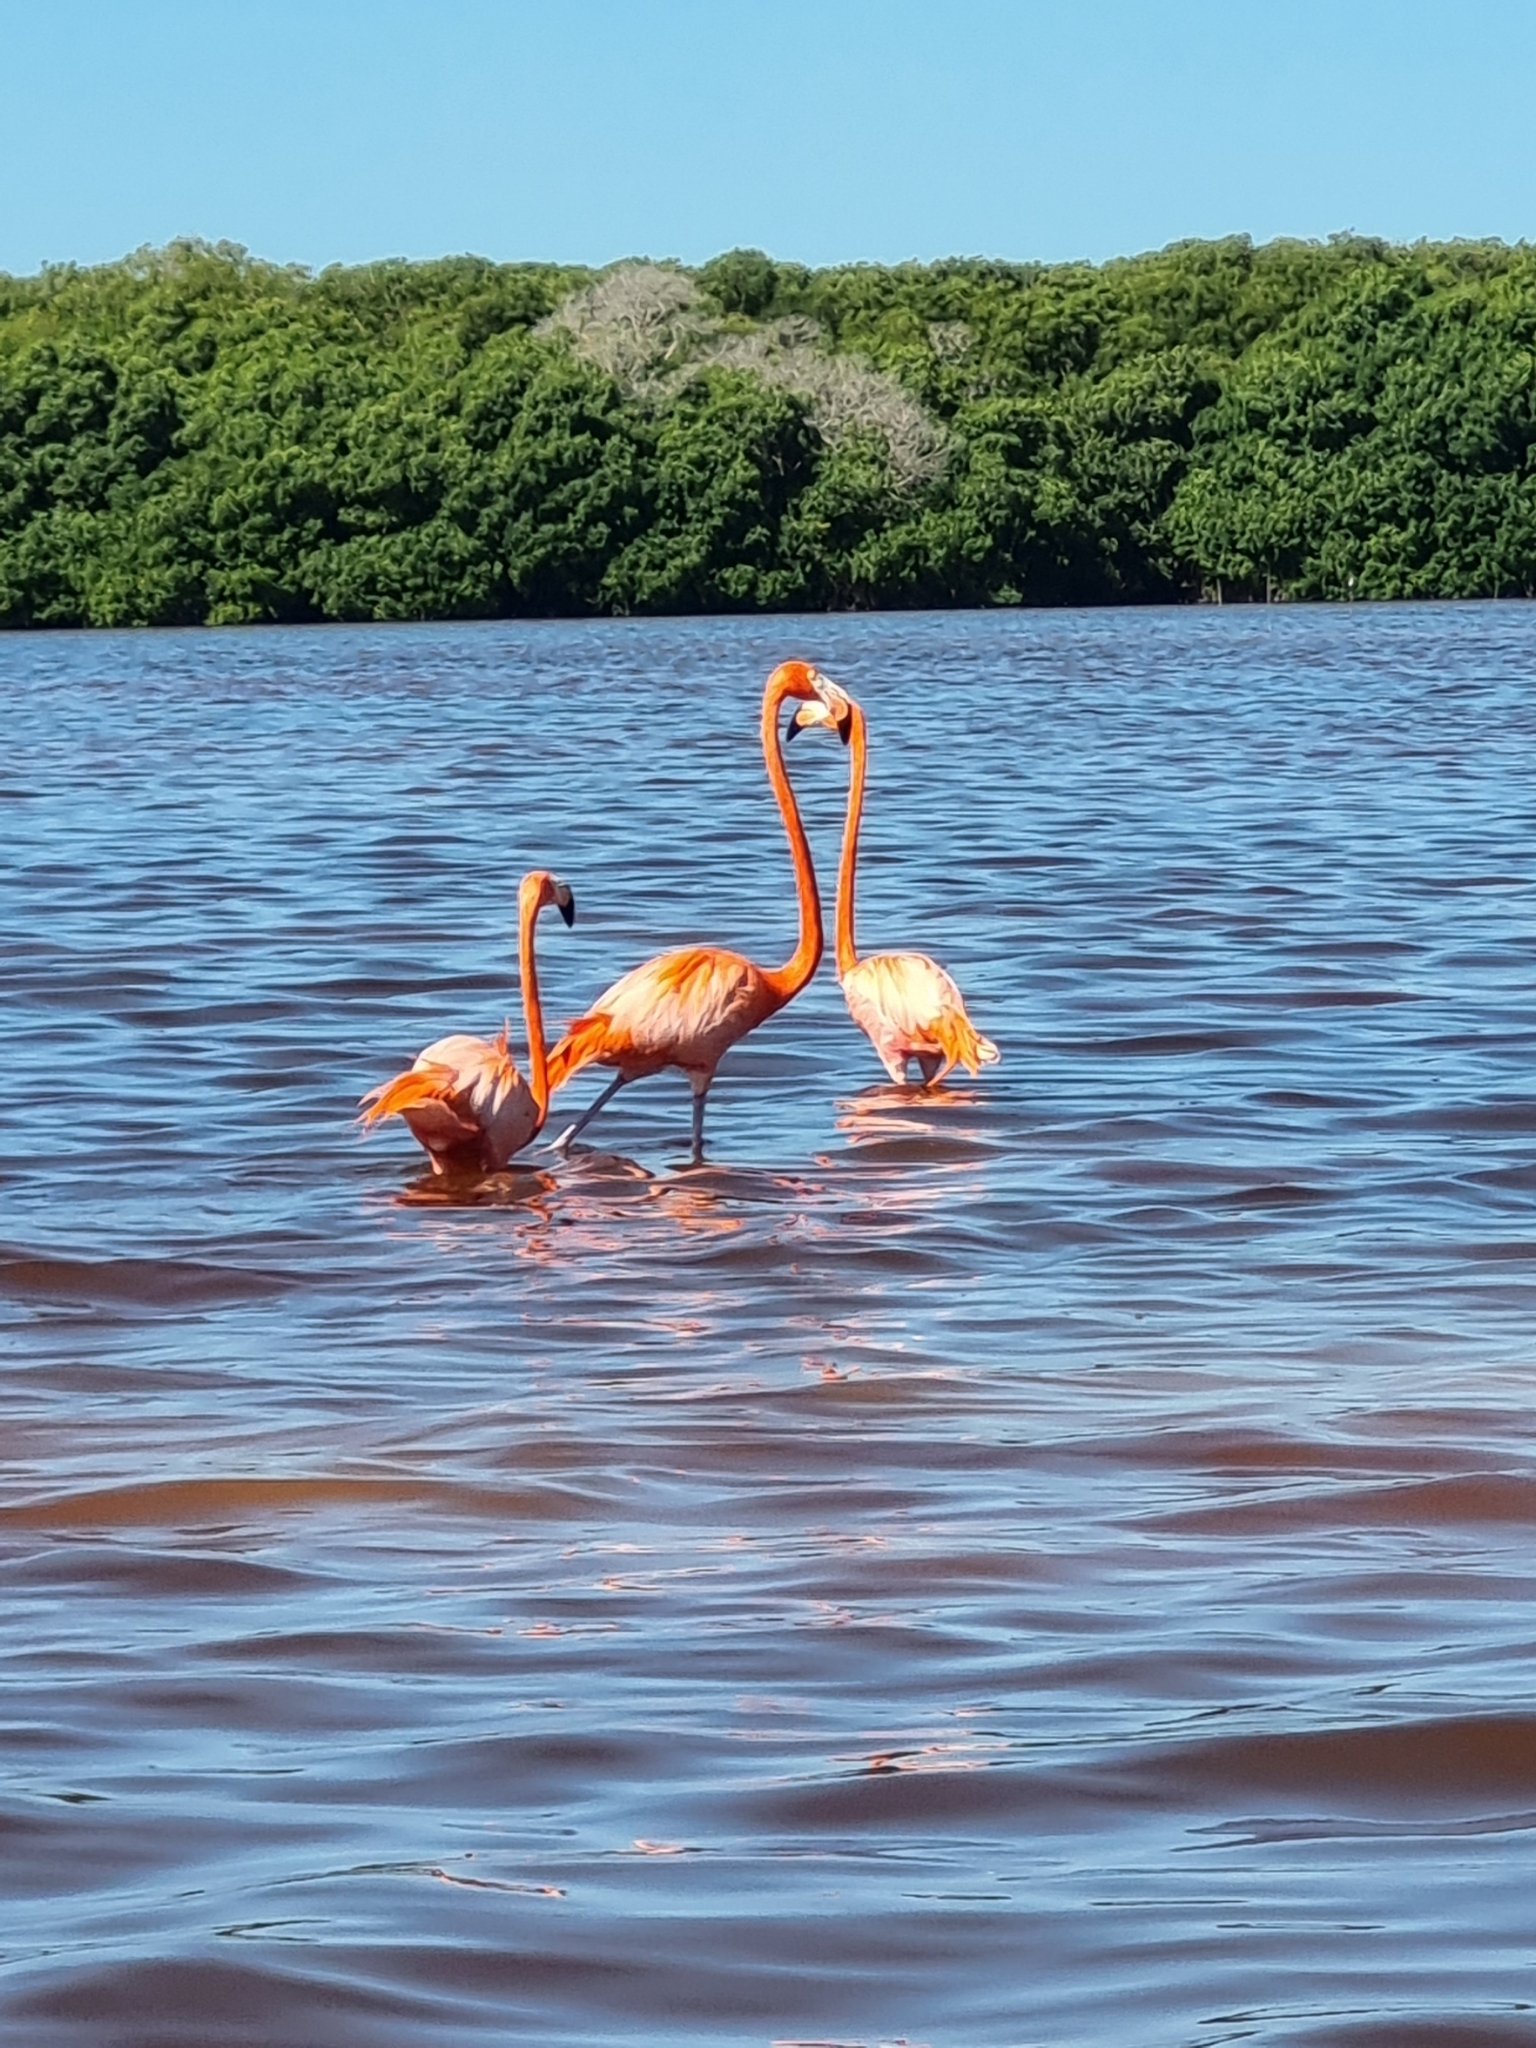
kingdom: Animalia
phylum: Chordata
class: Aves
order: Phoenicopteriformes
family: Phoenicopteridae
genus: Phoenicopterus
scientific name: Phoenicopterus ruber
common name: American flamingo
